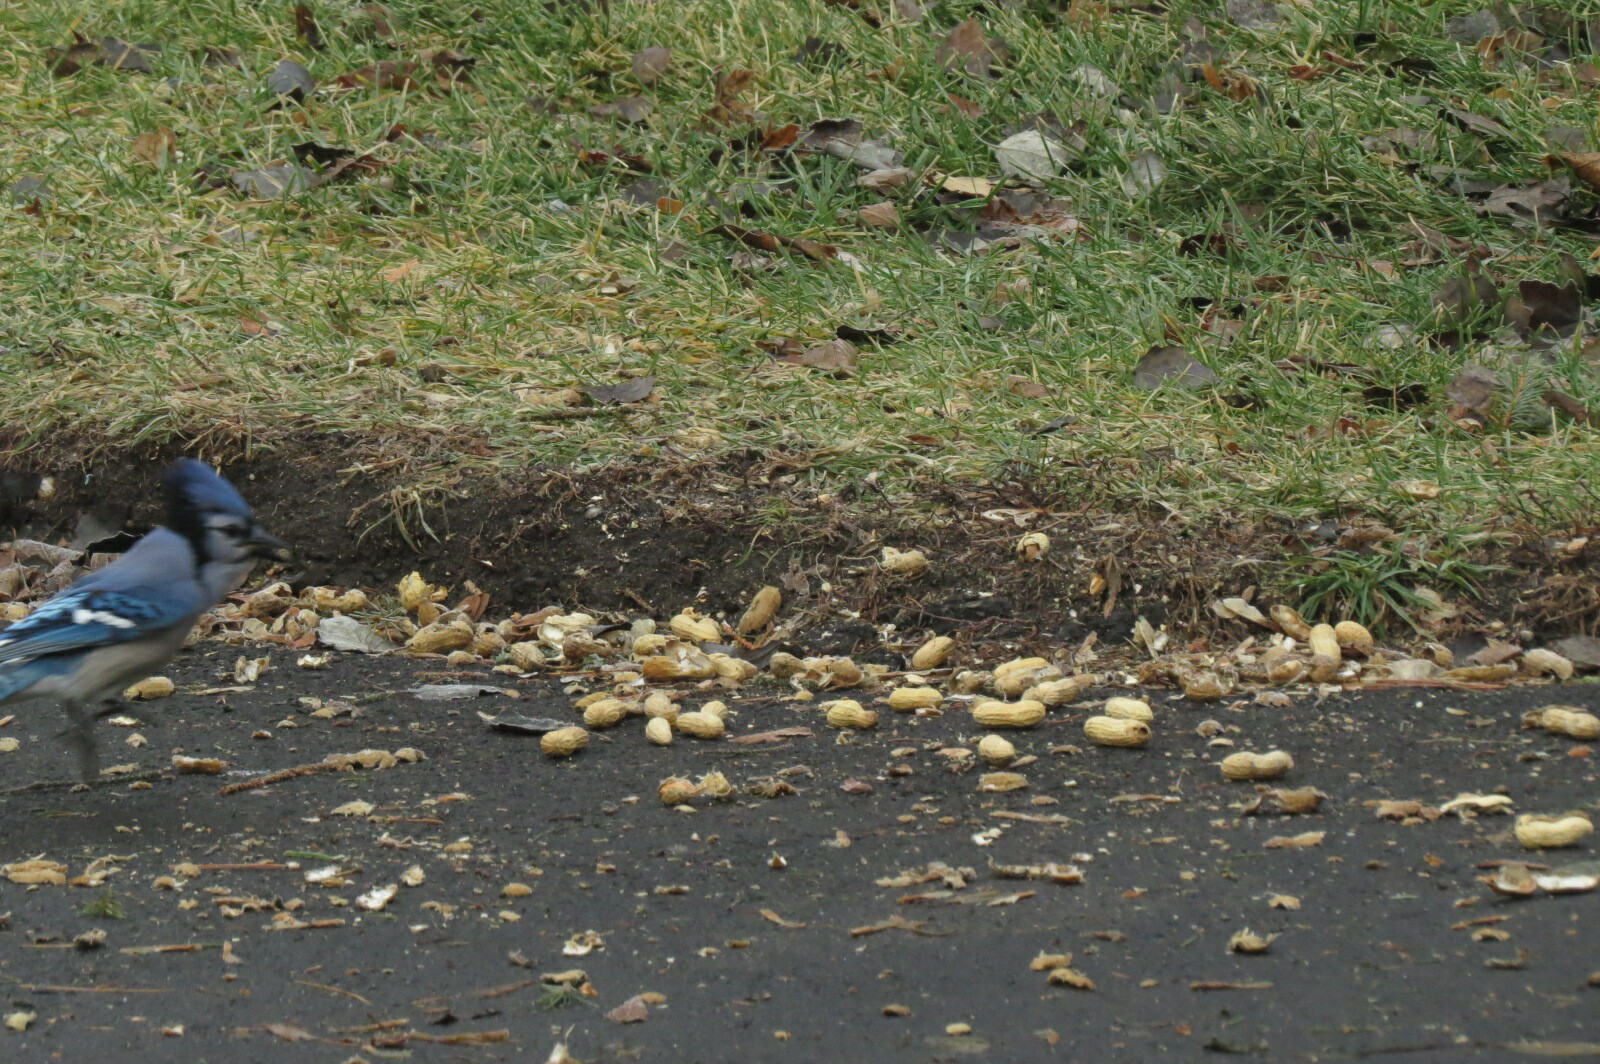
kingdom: Animalia
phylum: Chordata
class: Aves
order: Passeriformes
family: Corvidae
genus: Cyanocitta
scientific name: Cyanocitta cristata
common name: Blue jay
